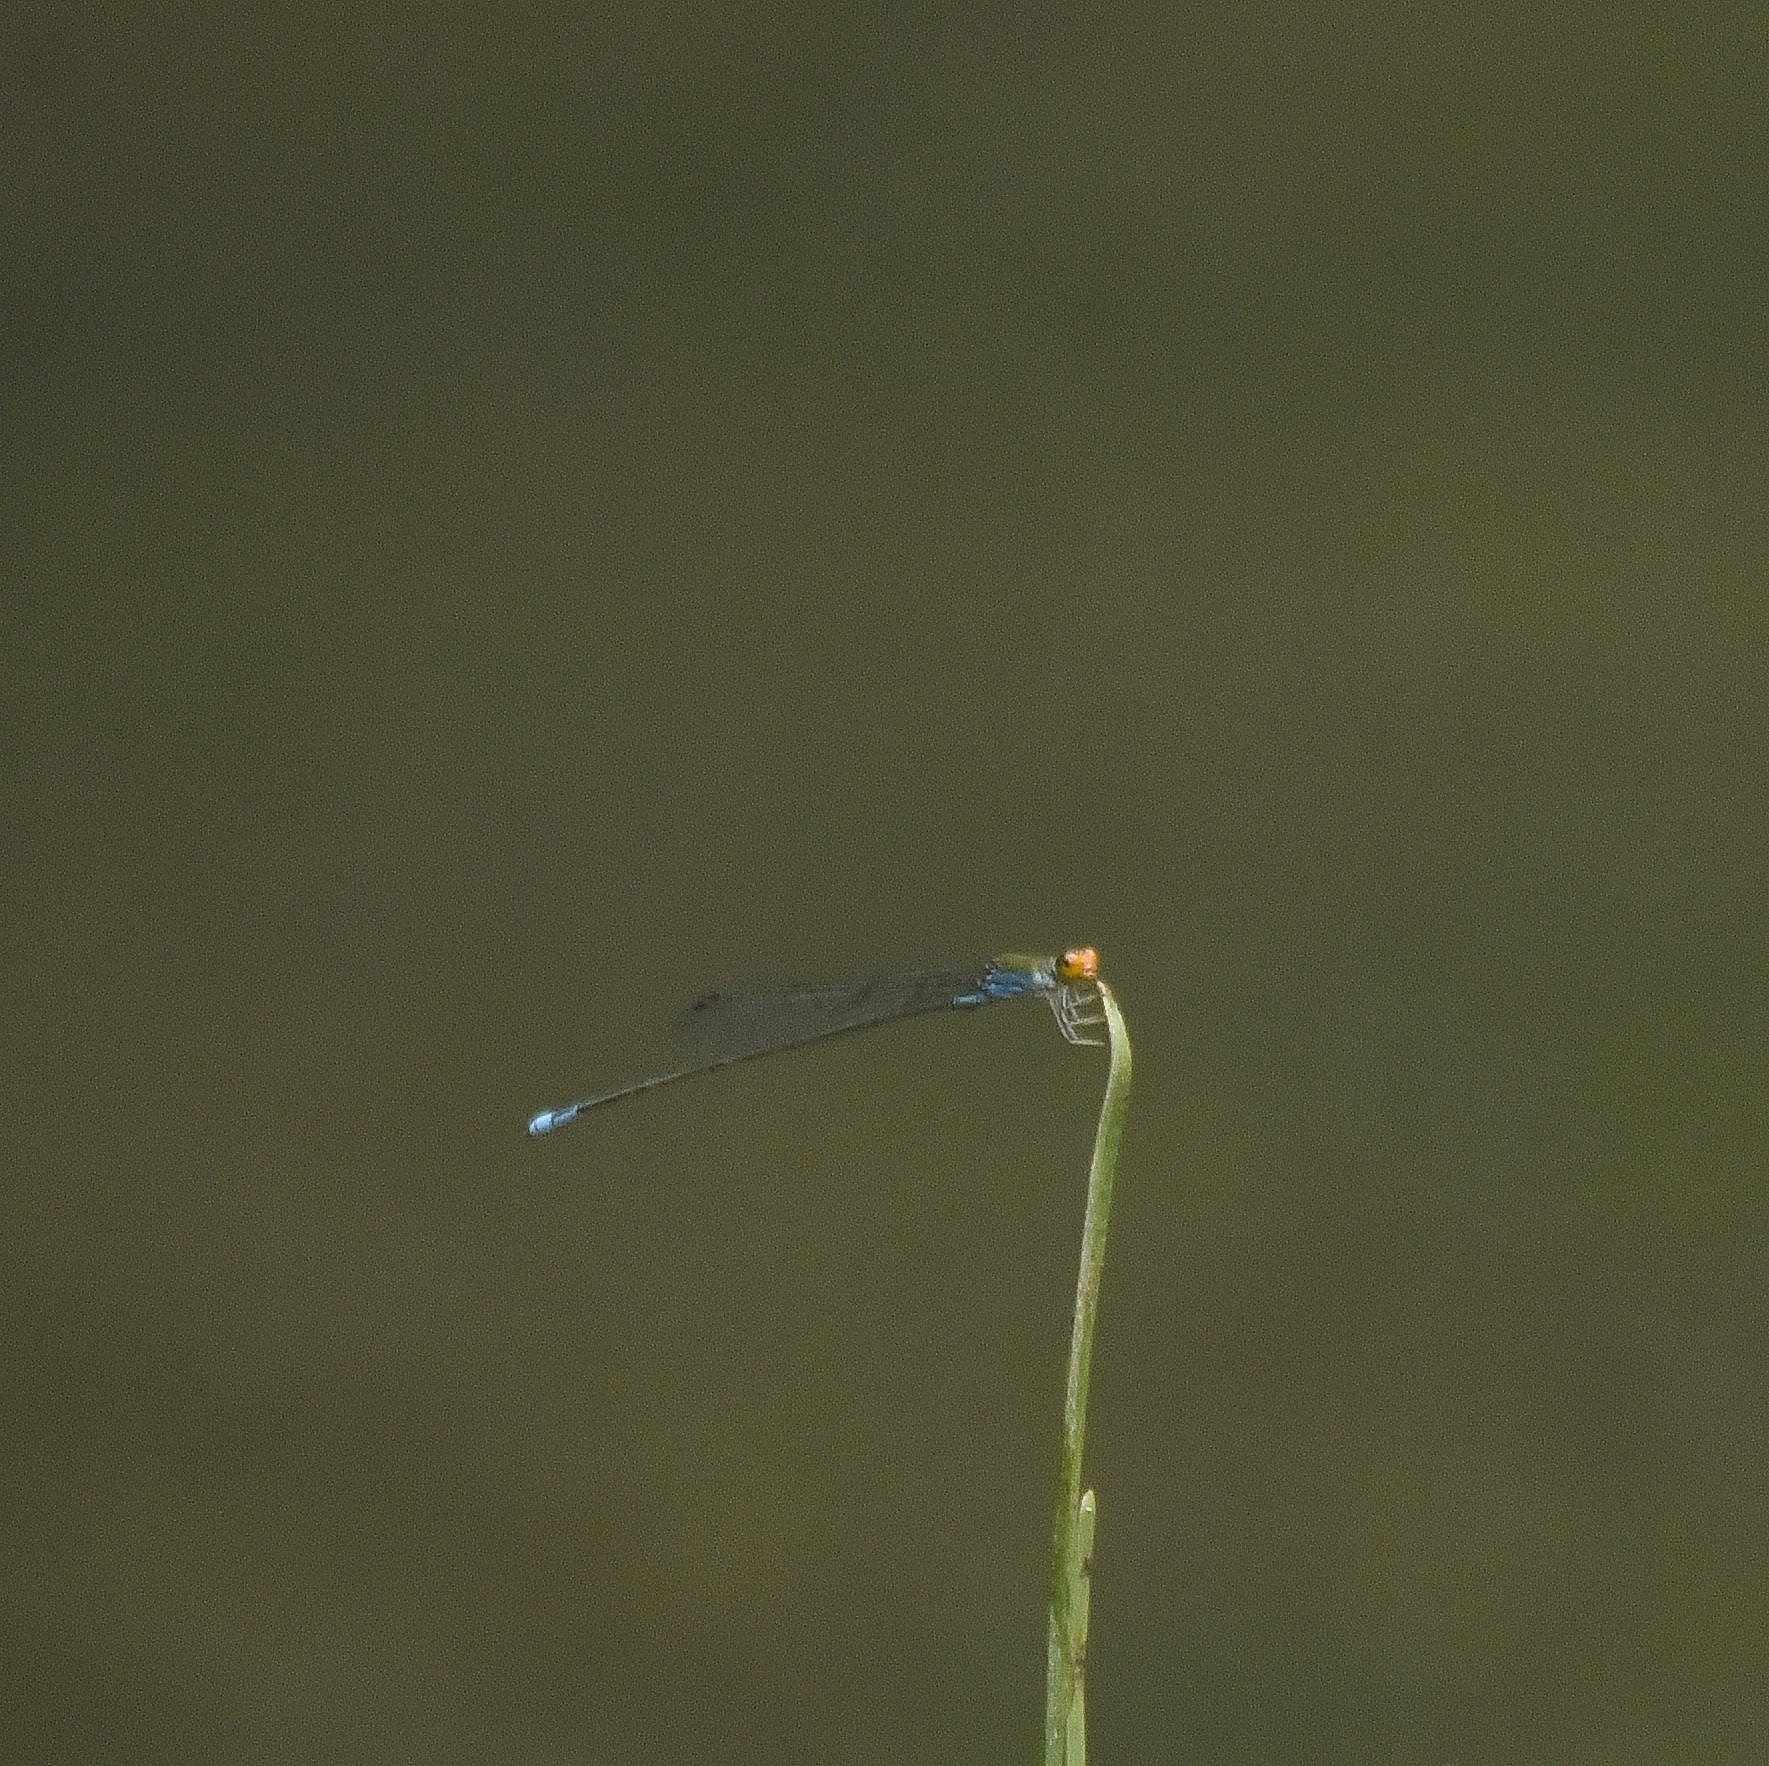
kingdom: Animalia
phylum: Arthropoda
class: Insecta
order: Odonata
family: Coenagrionidae
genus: Pseudagrion
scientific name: Pseudagrion rubriceps
